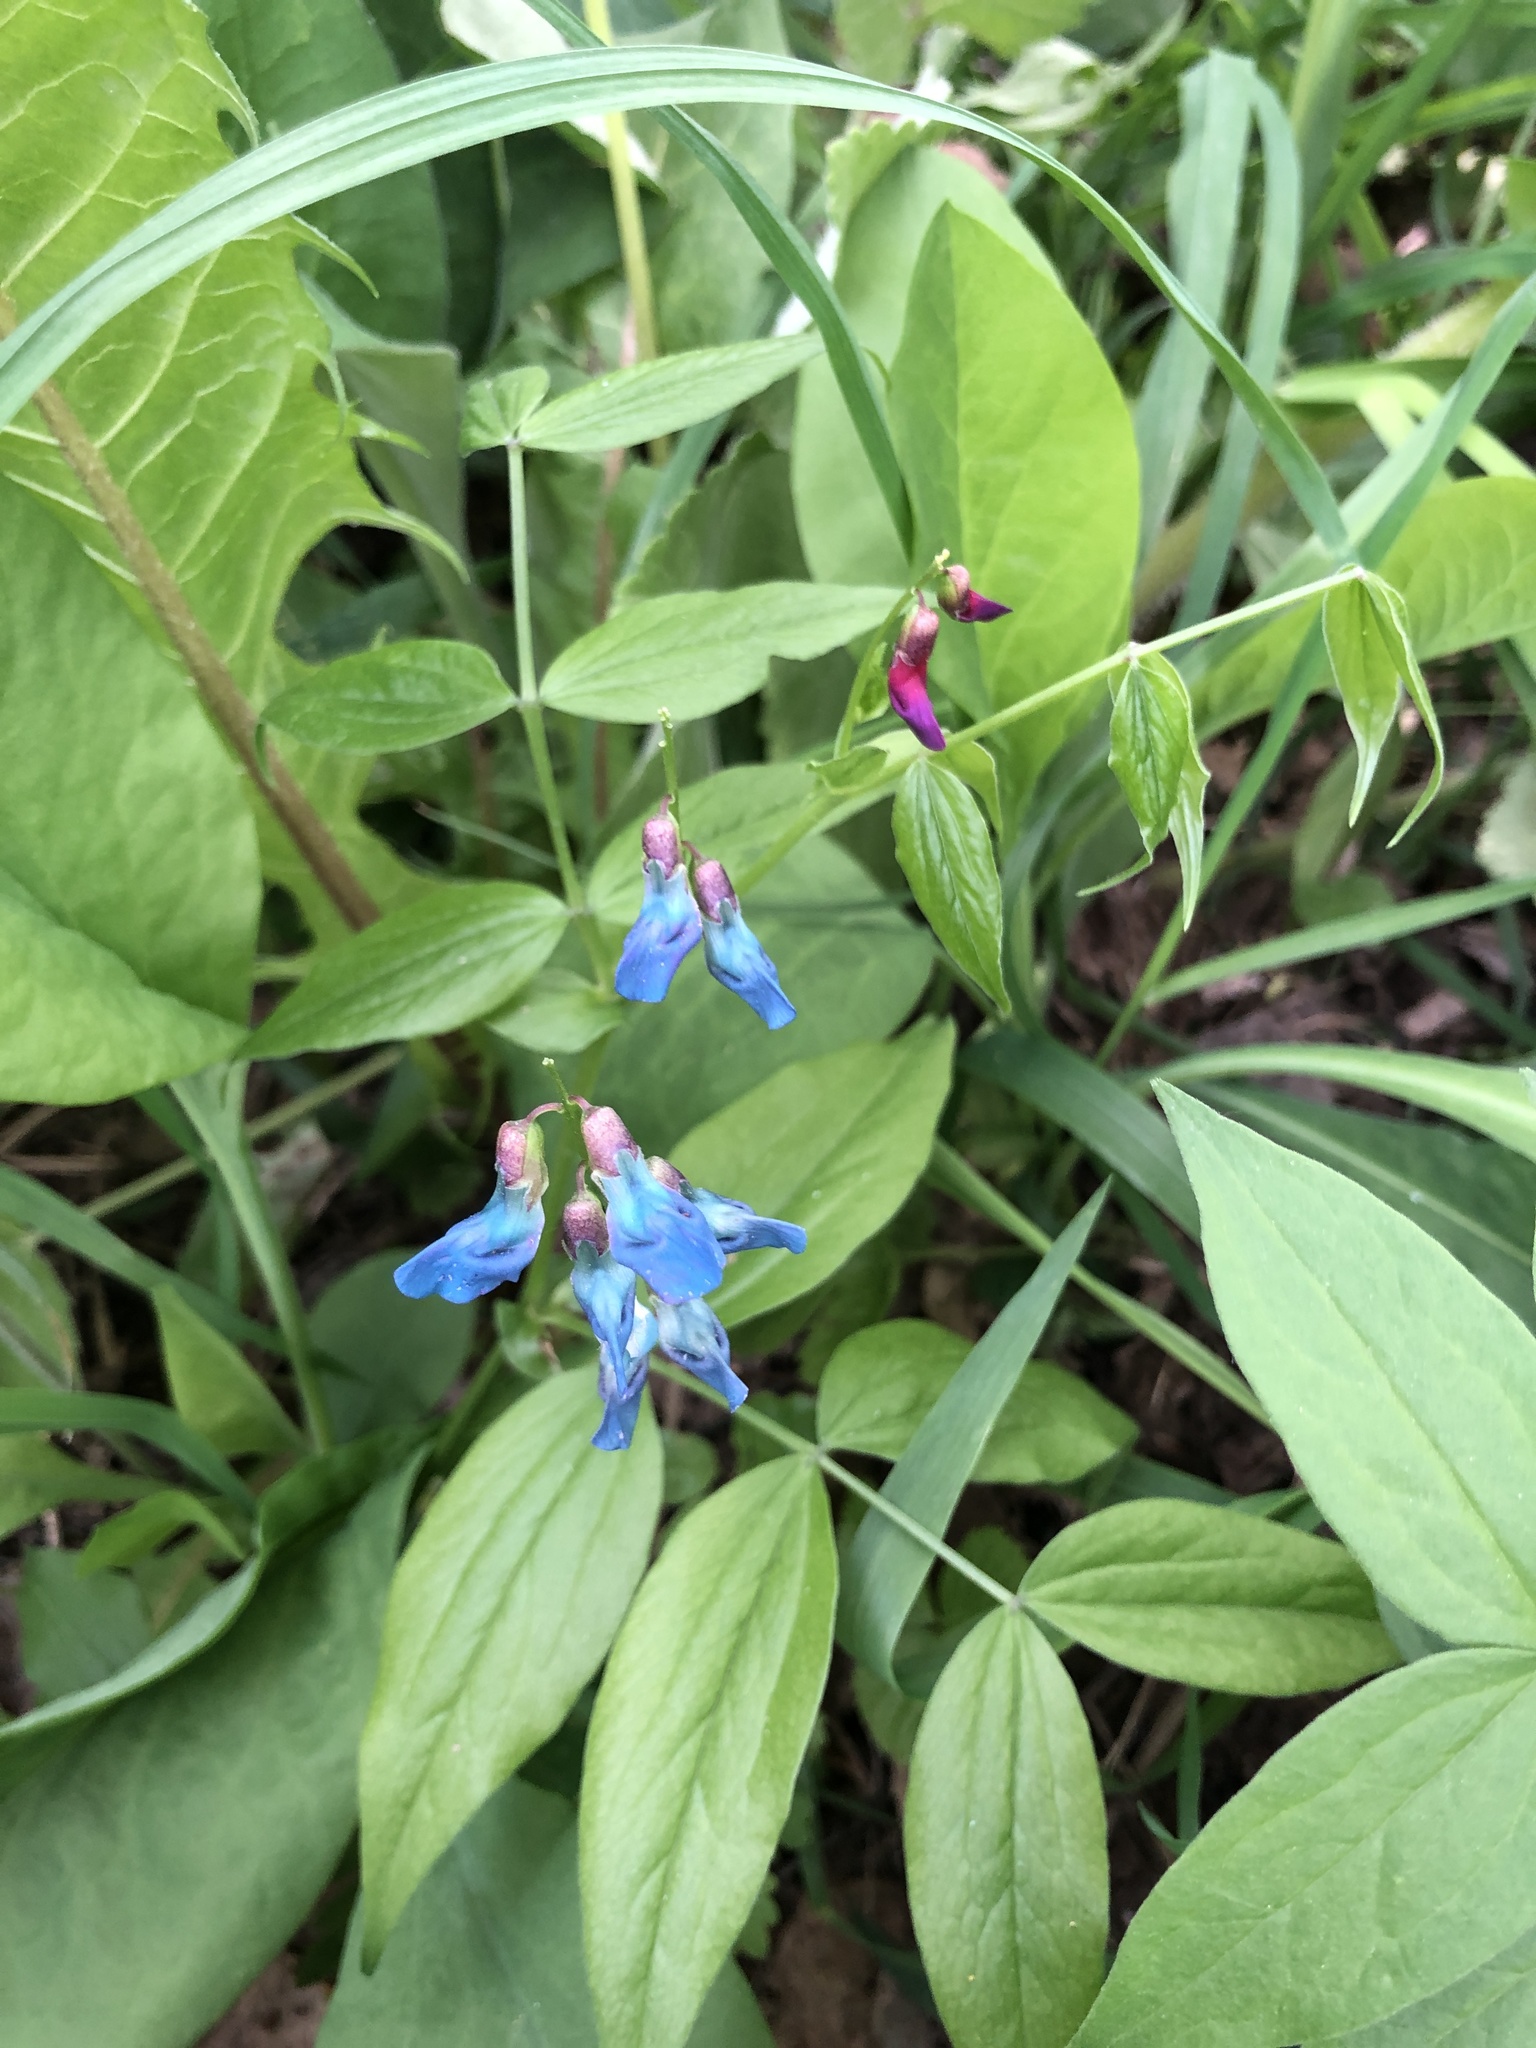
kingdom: Plantae
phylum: Tracheophyta
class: Magnoliopsida
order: Fabales
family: Fabaceae
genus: Lathyrus
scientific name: Lathyrus vernus
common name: Spring pea
